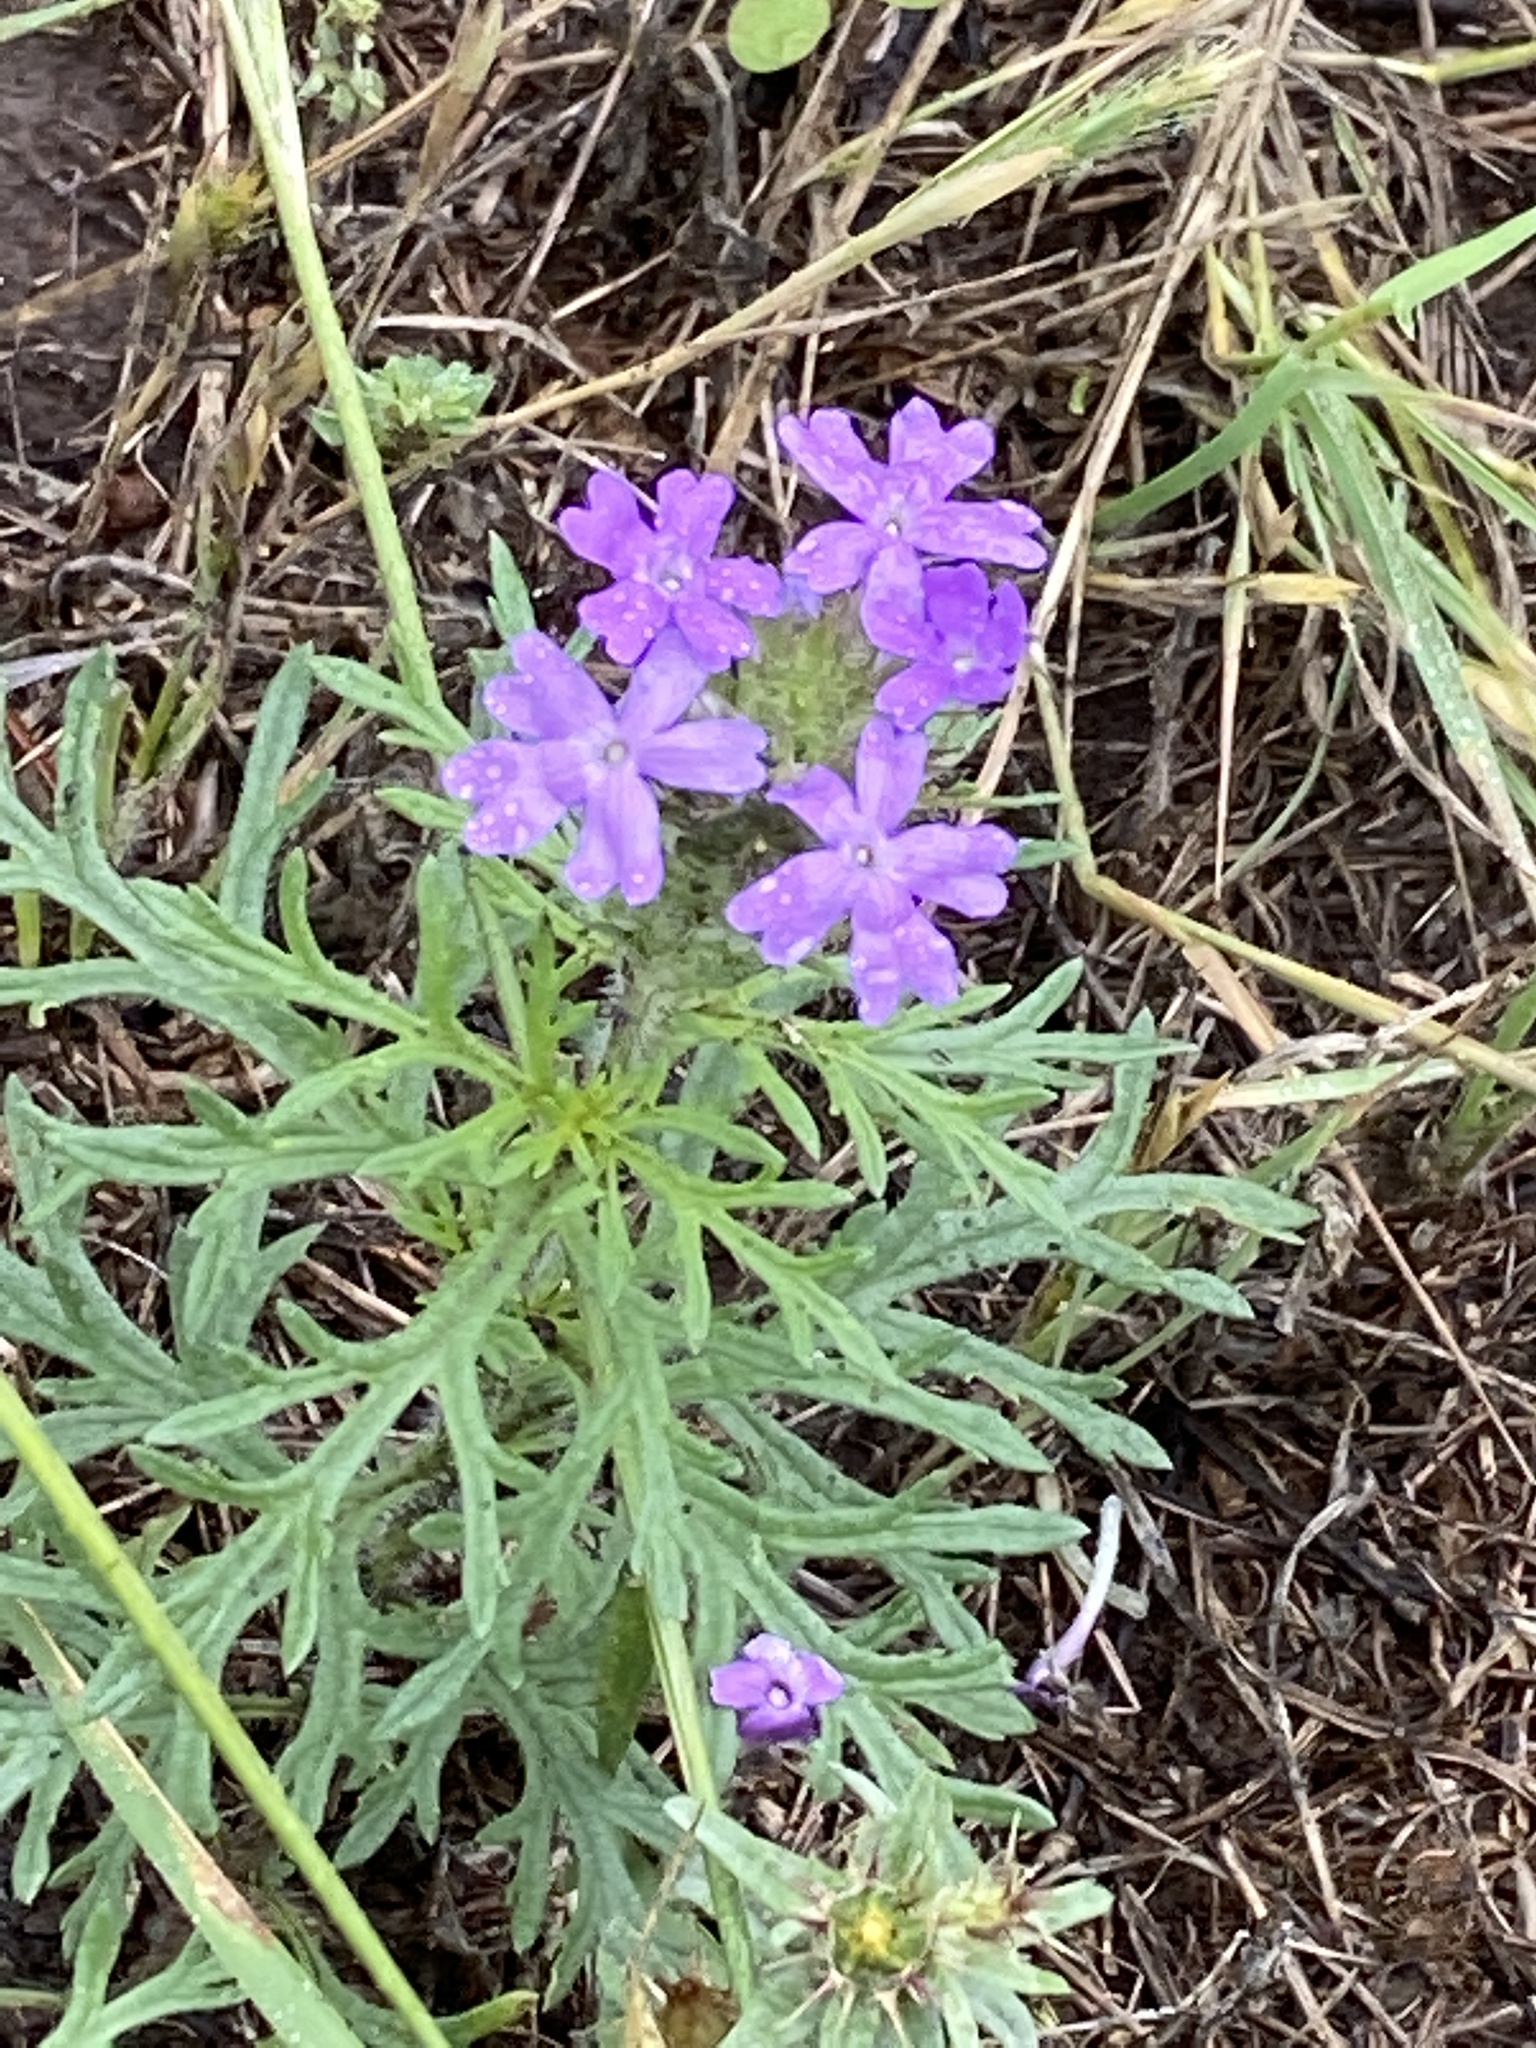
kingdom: Plantae
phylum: Tracheophyta
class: Magnoliopsida
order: Lamiales
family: Verbenaceae
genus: Verbena
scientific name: Verbena bipinnatifida
